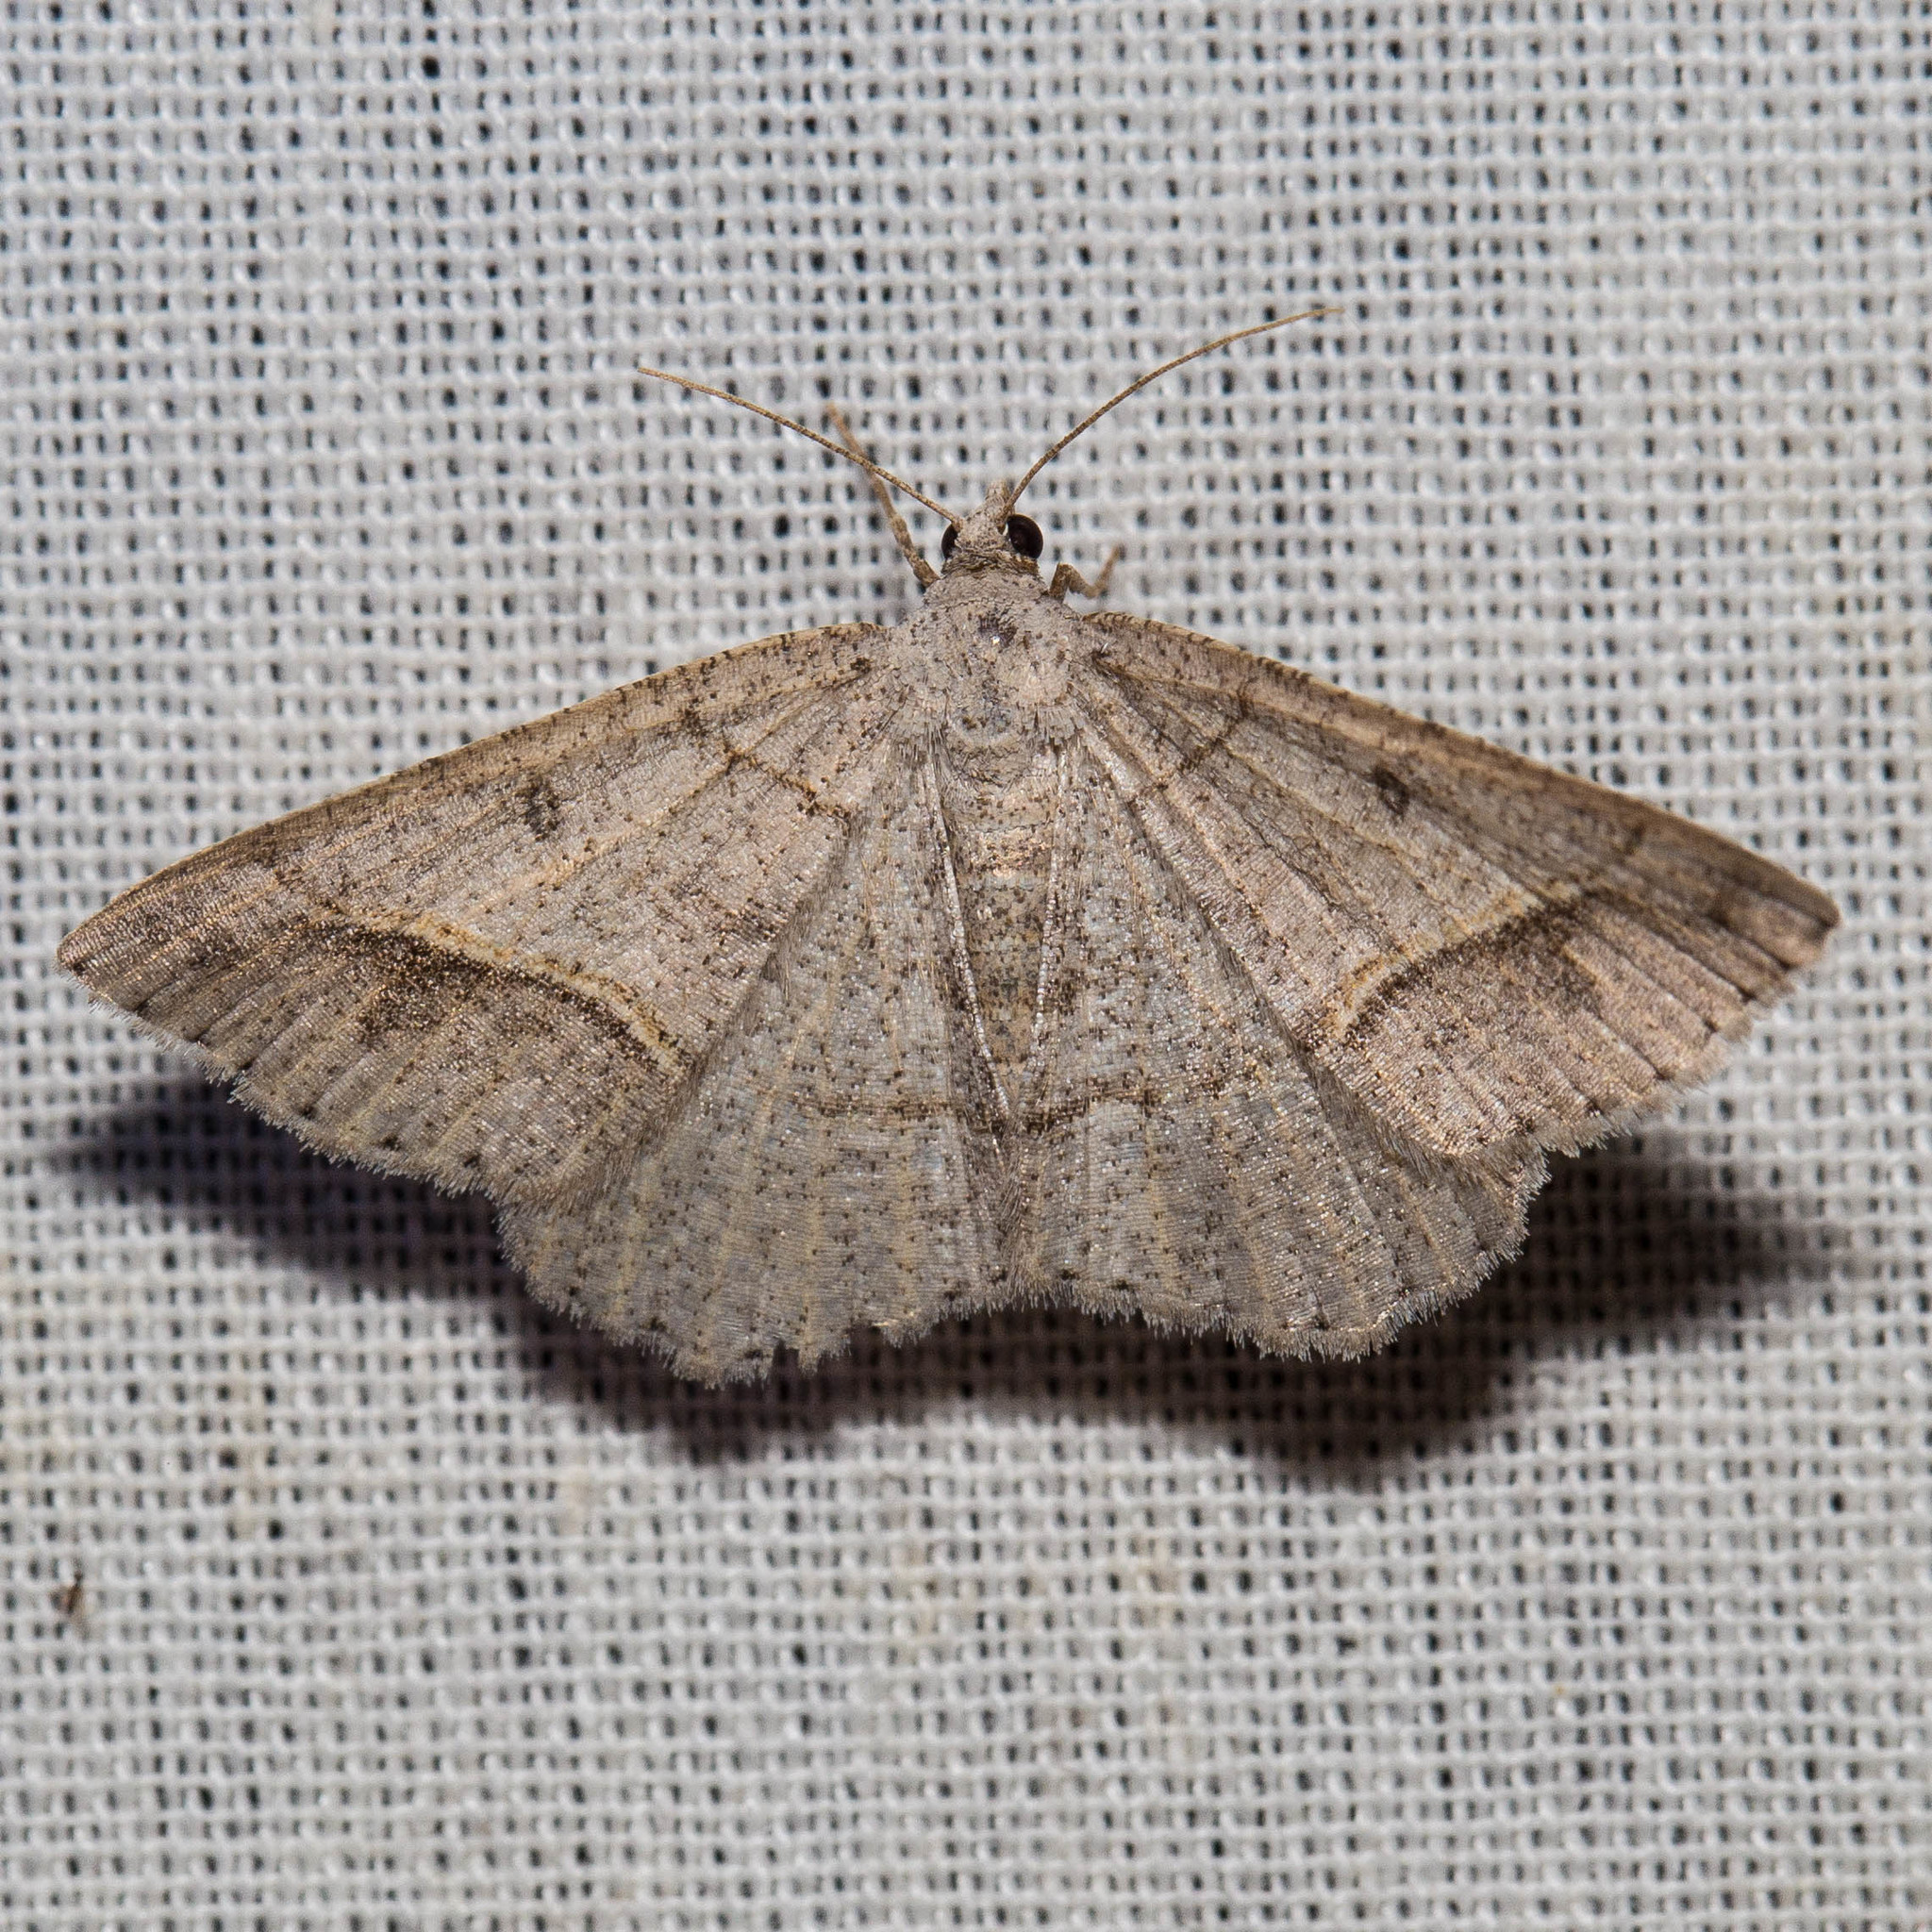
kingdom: Animalia
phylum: Arthropoda
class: Insecta
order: Lepidoptera
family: Geometridae
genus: Digrammia
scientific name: Digrammia neptaria
